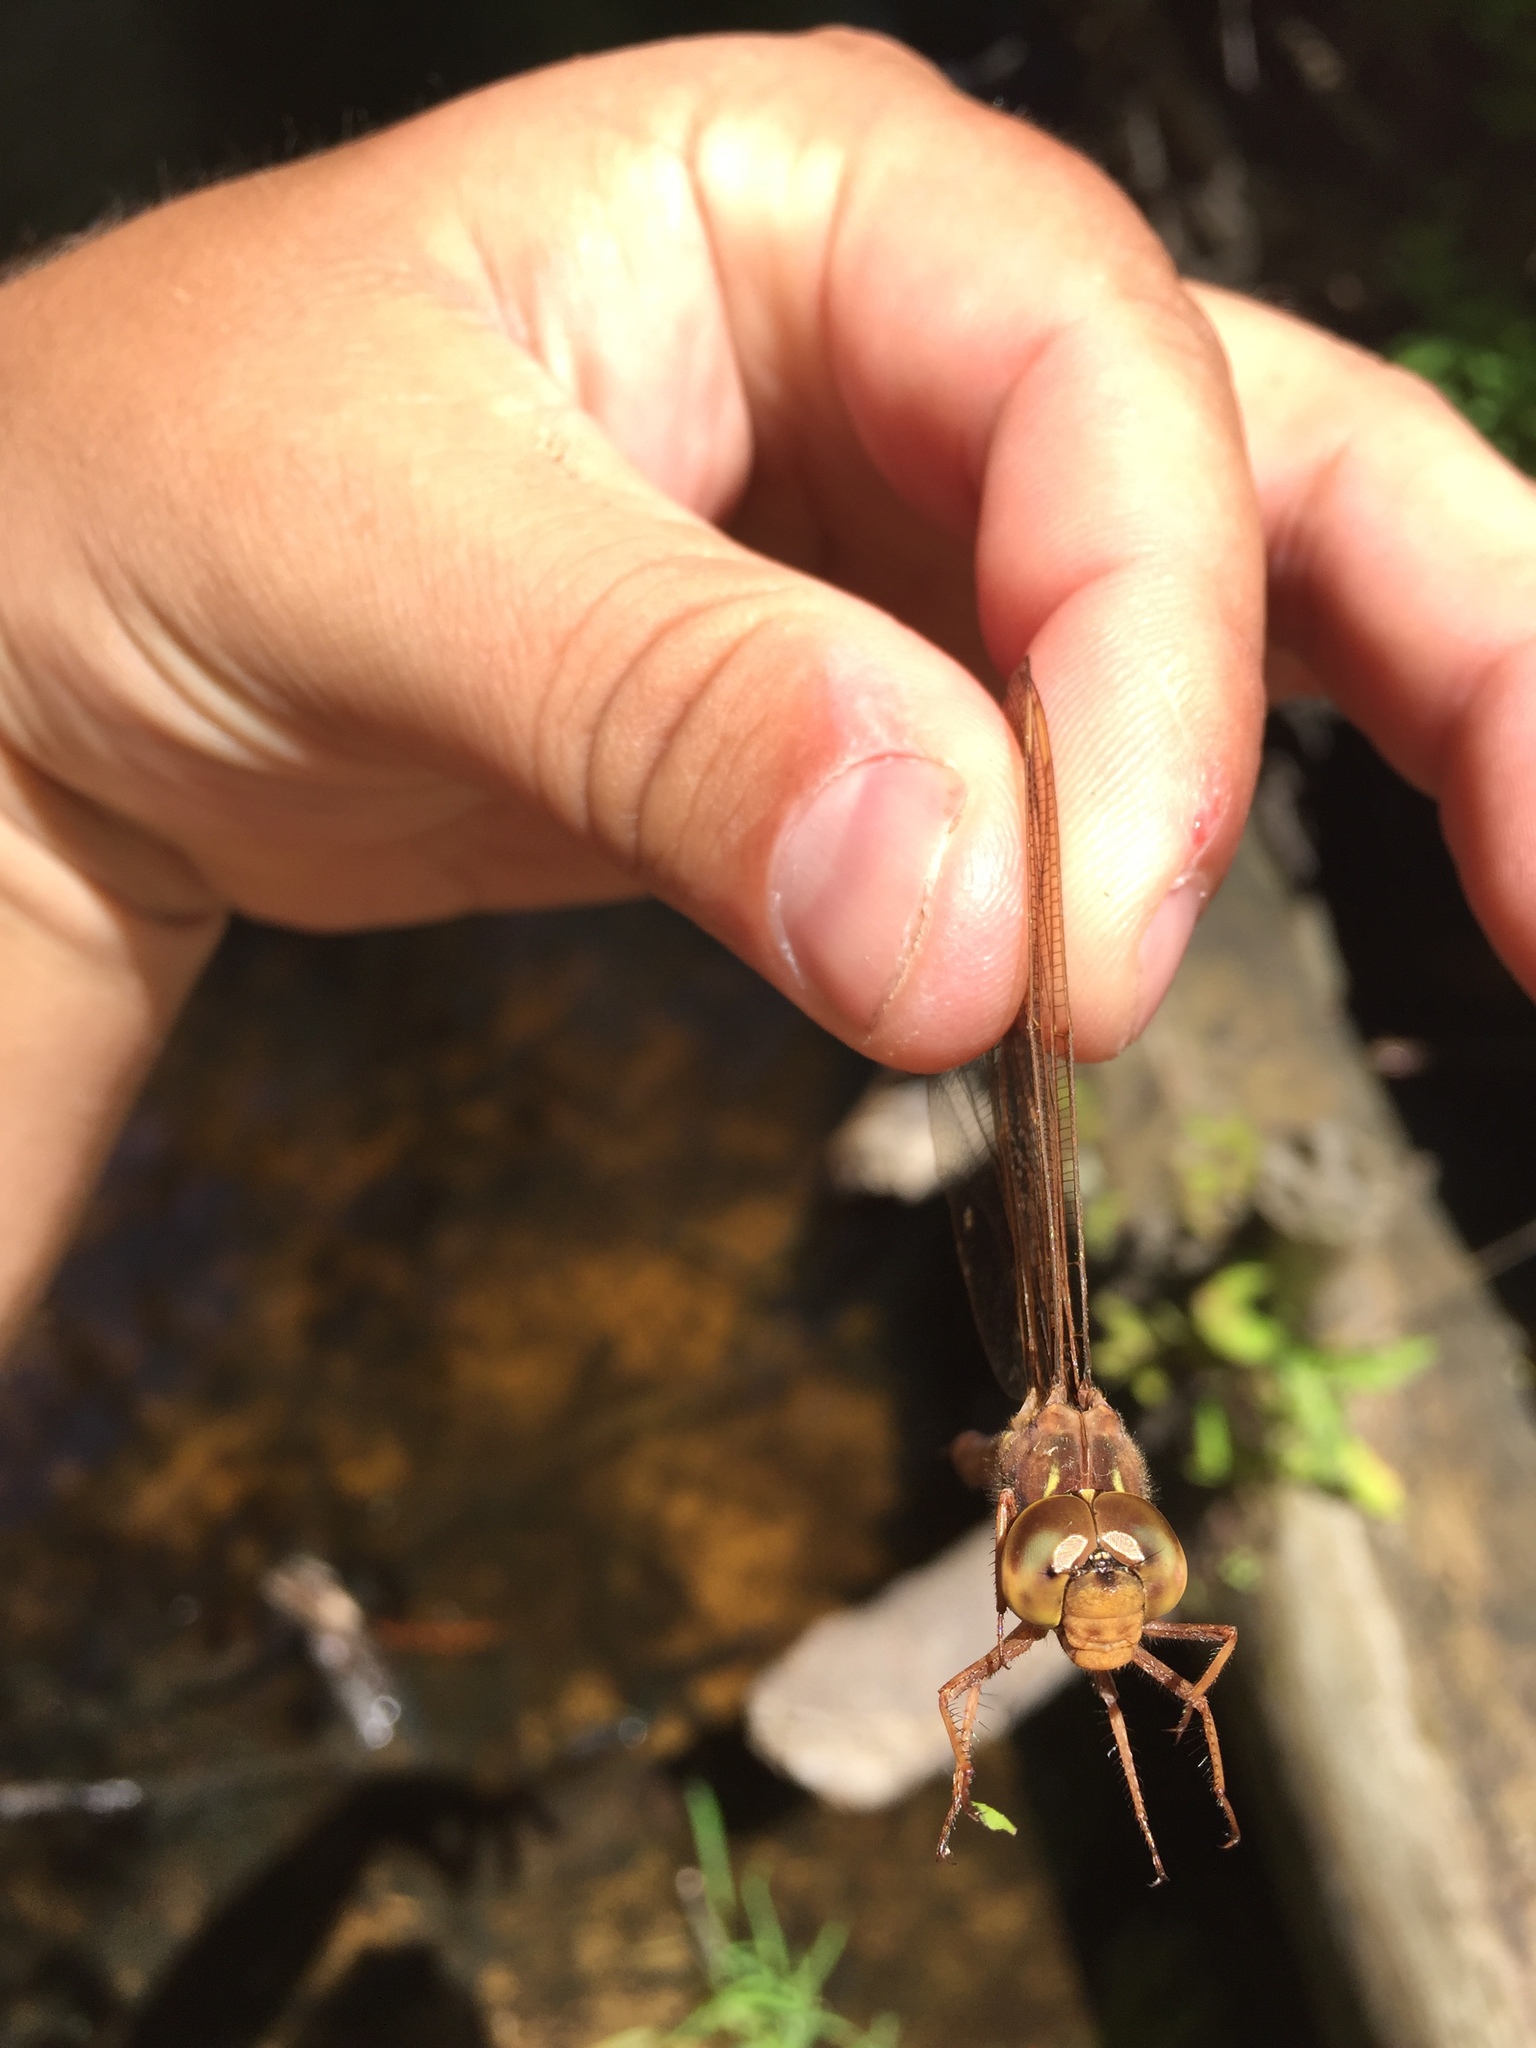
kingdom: Animalia
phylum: Arthropoda
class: Insecta
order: Odonata
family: Aeshnidae
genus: Boyeria
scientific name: Boyeria vinosa
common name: Fawn darner
